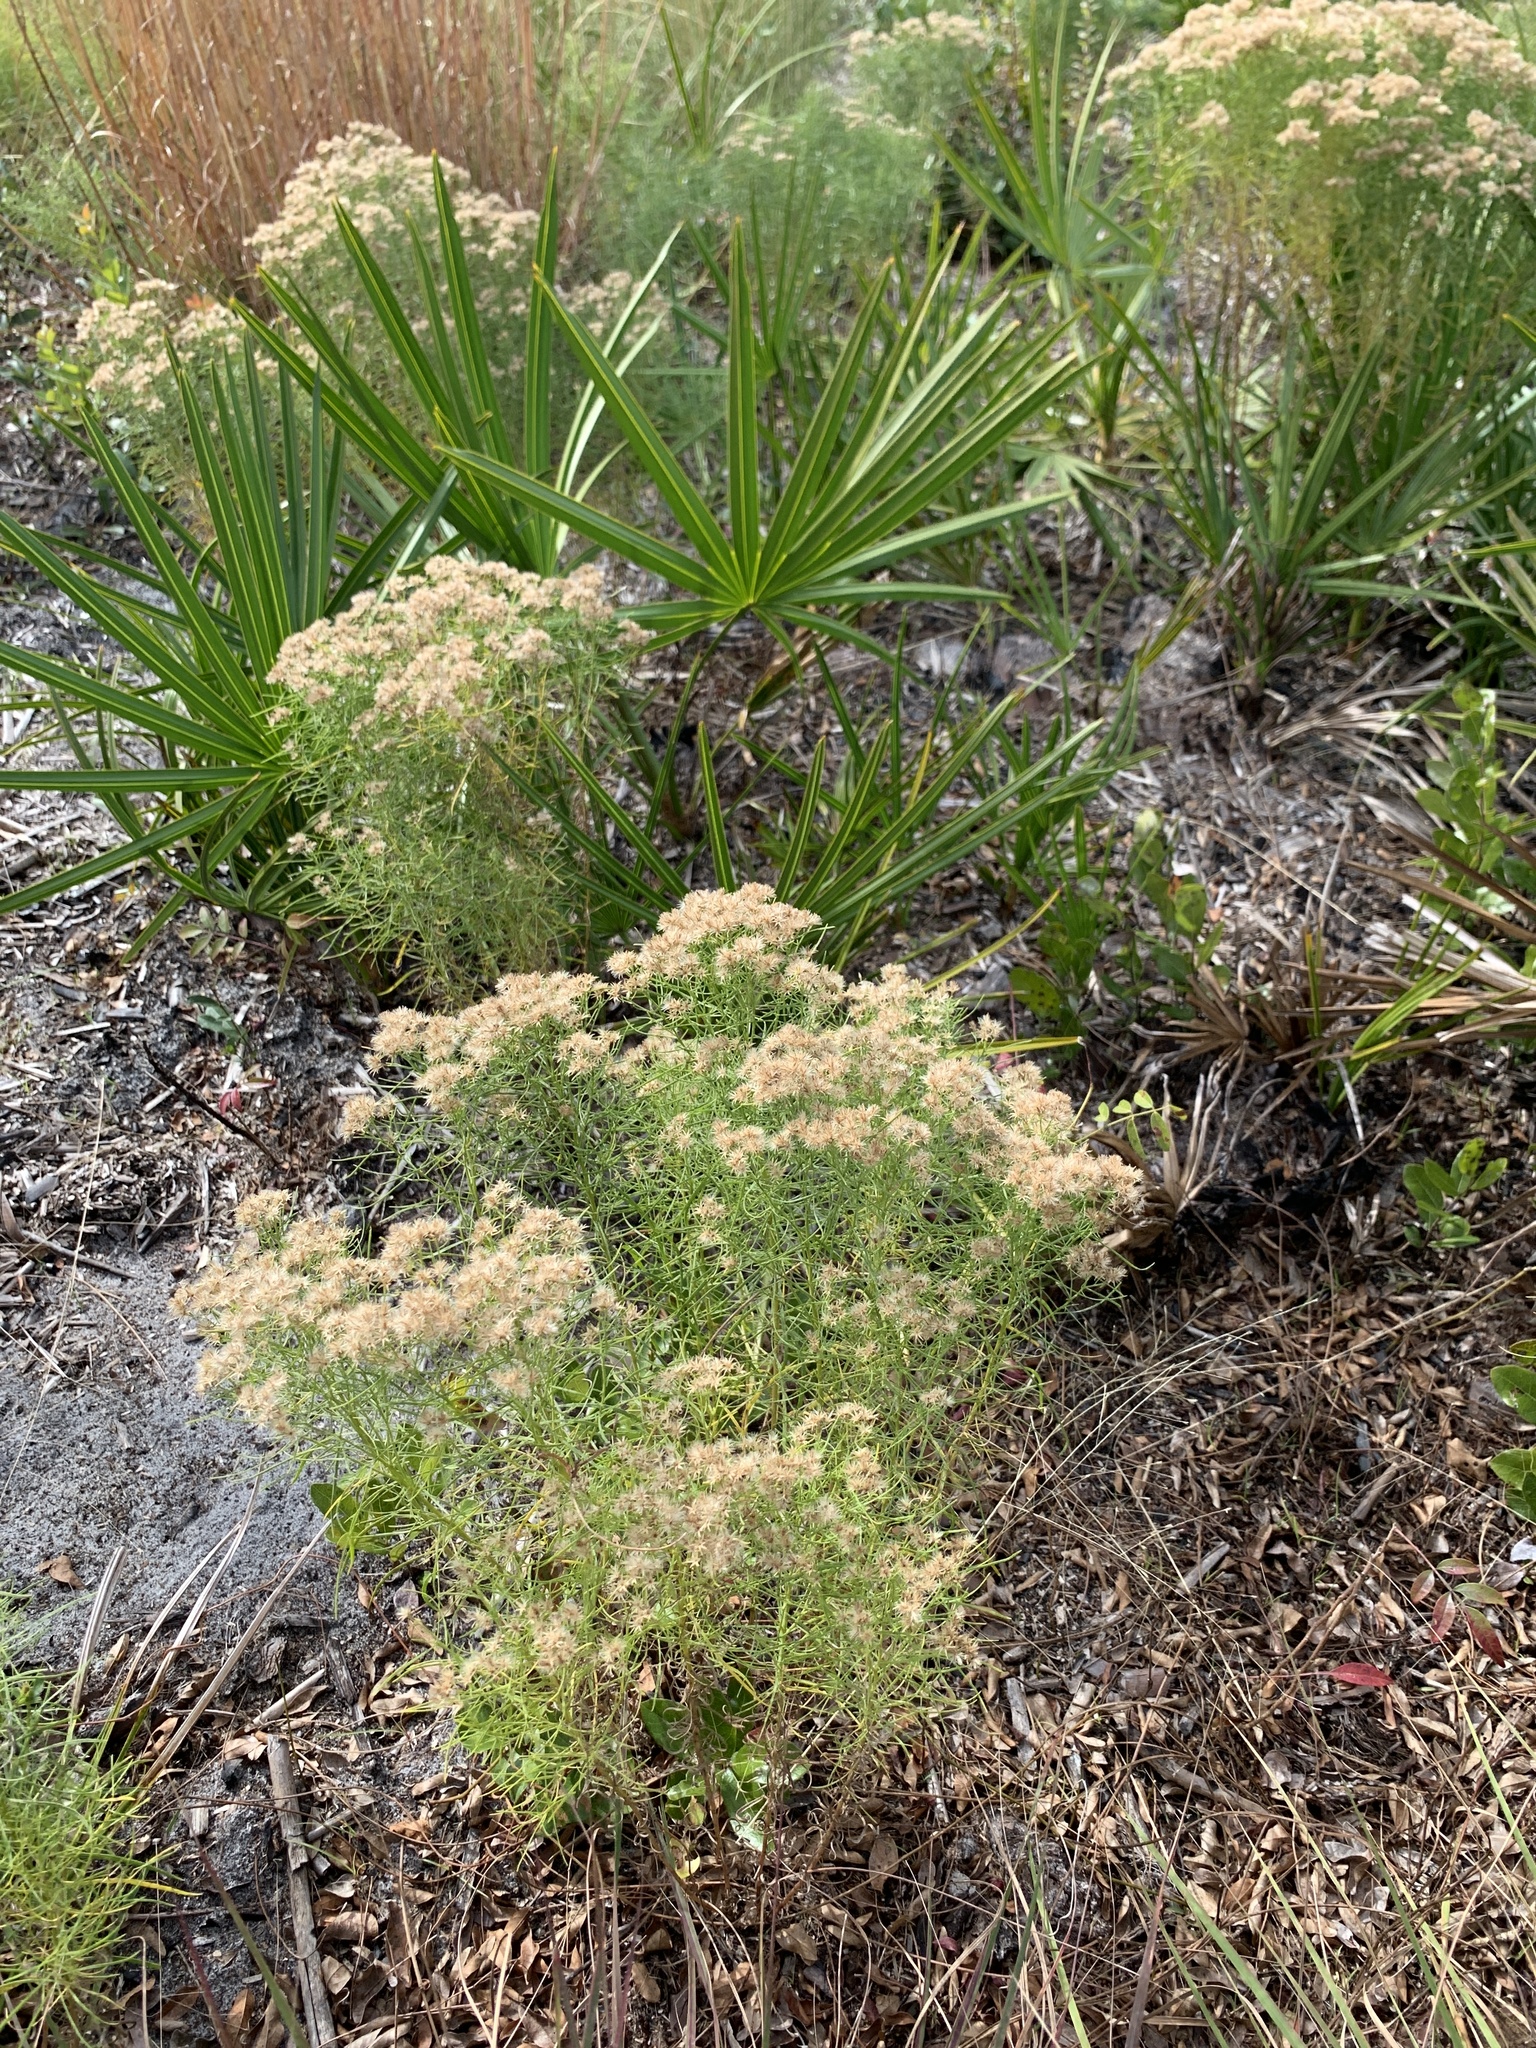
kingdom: Plantae
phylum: Tracheophyta
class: Magnoliopsida
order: Asterales
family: Asteraceae
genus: Euthamia
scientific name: Euthamia caroliniana
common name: Coastal plain goldentop
